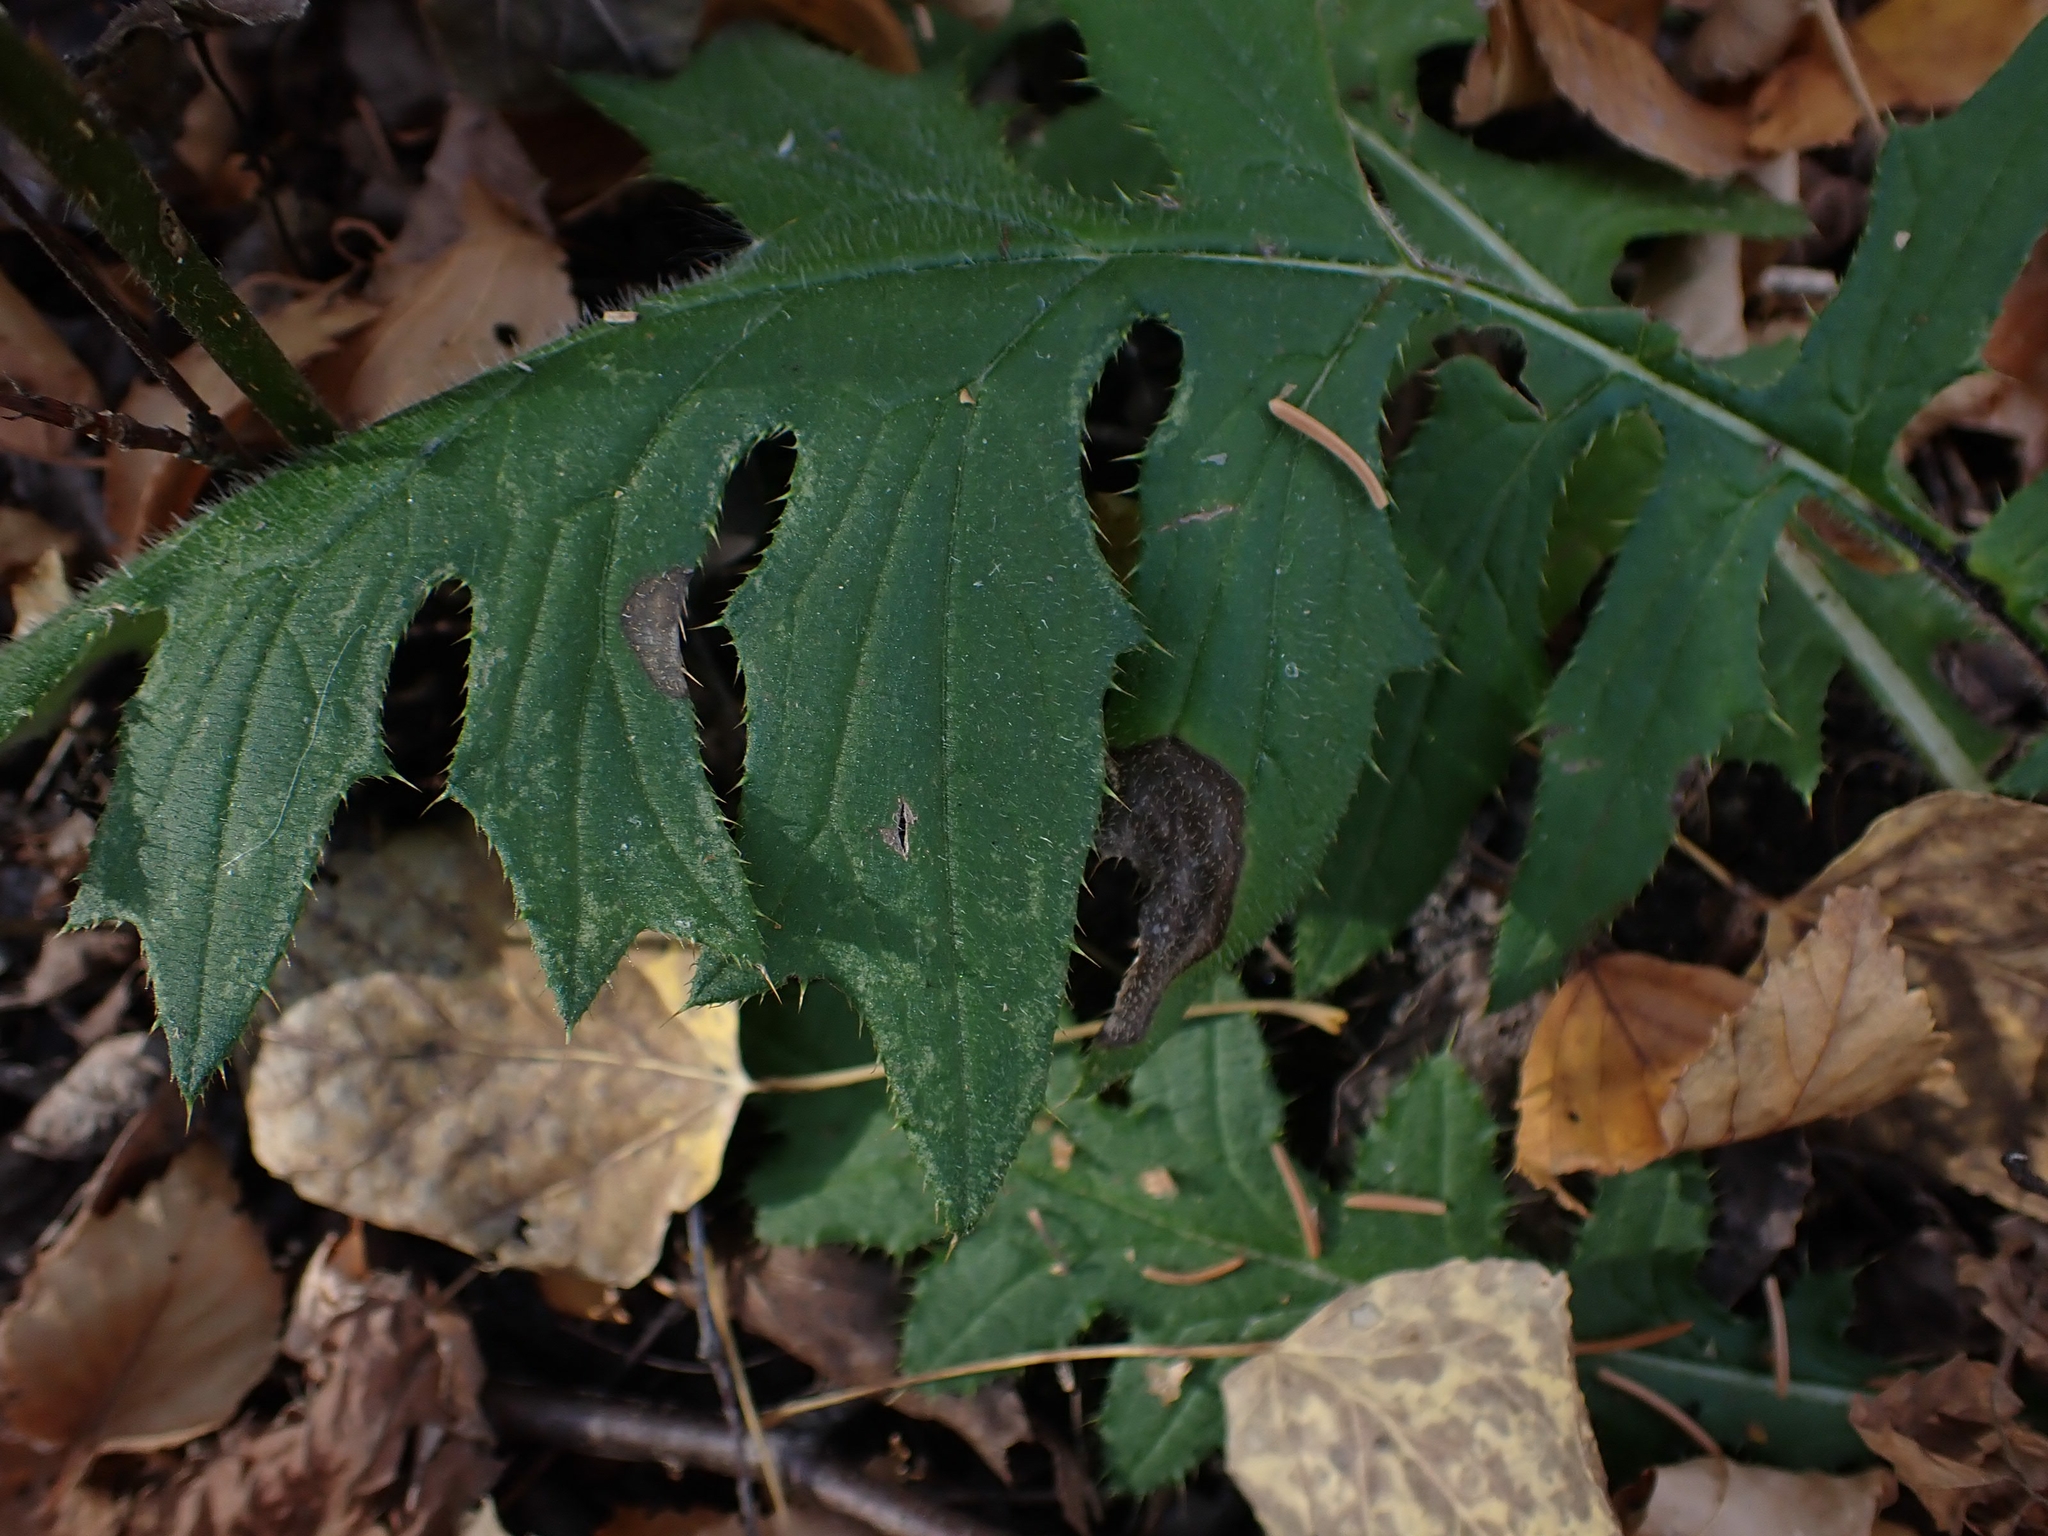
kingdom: Plantae
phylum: Tracheophyta
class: Magnoliopsida
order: Asterales
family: Asteraceae
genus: Cirsium
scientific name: Cirsium muticum
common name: Dunce-nettle
